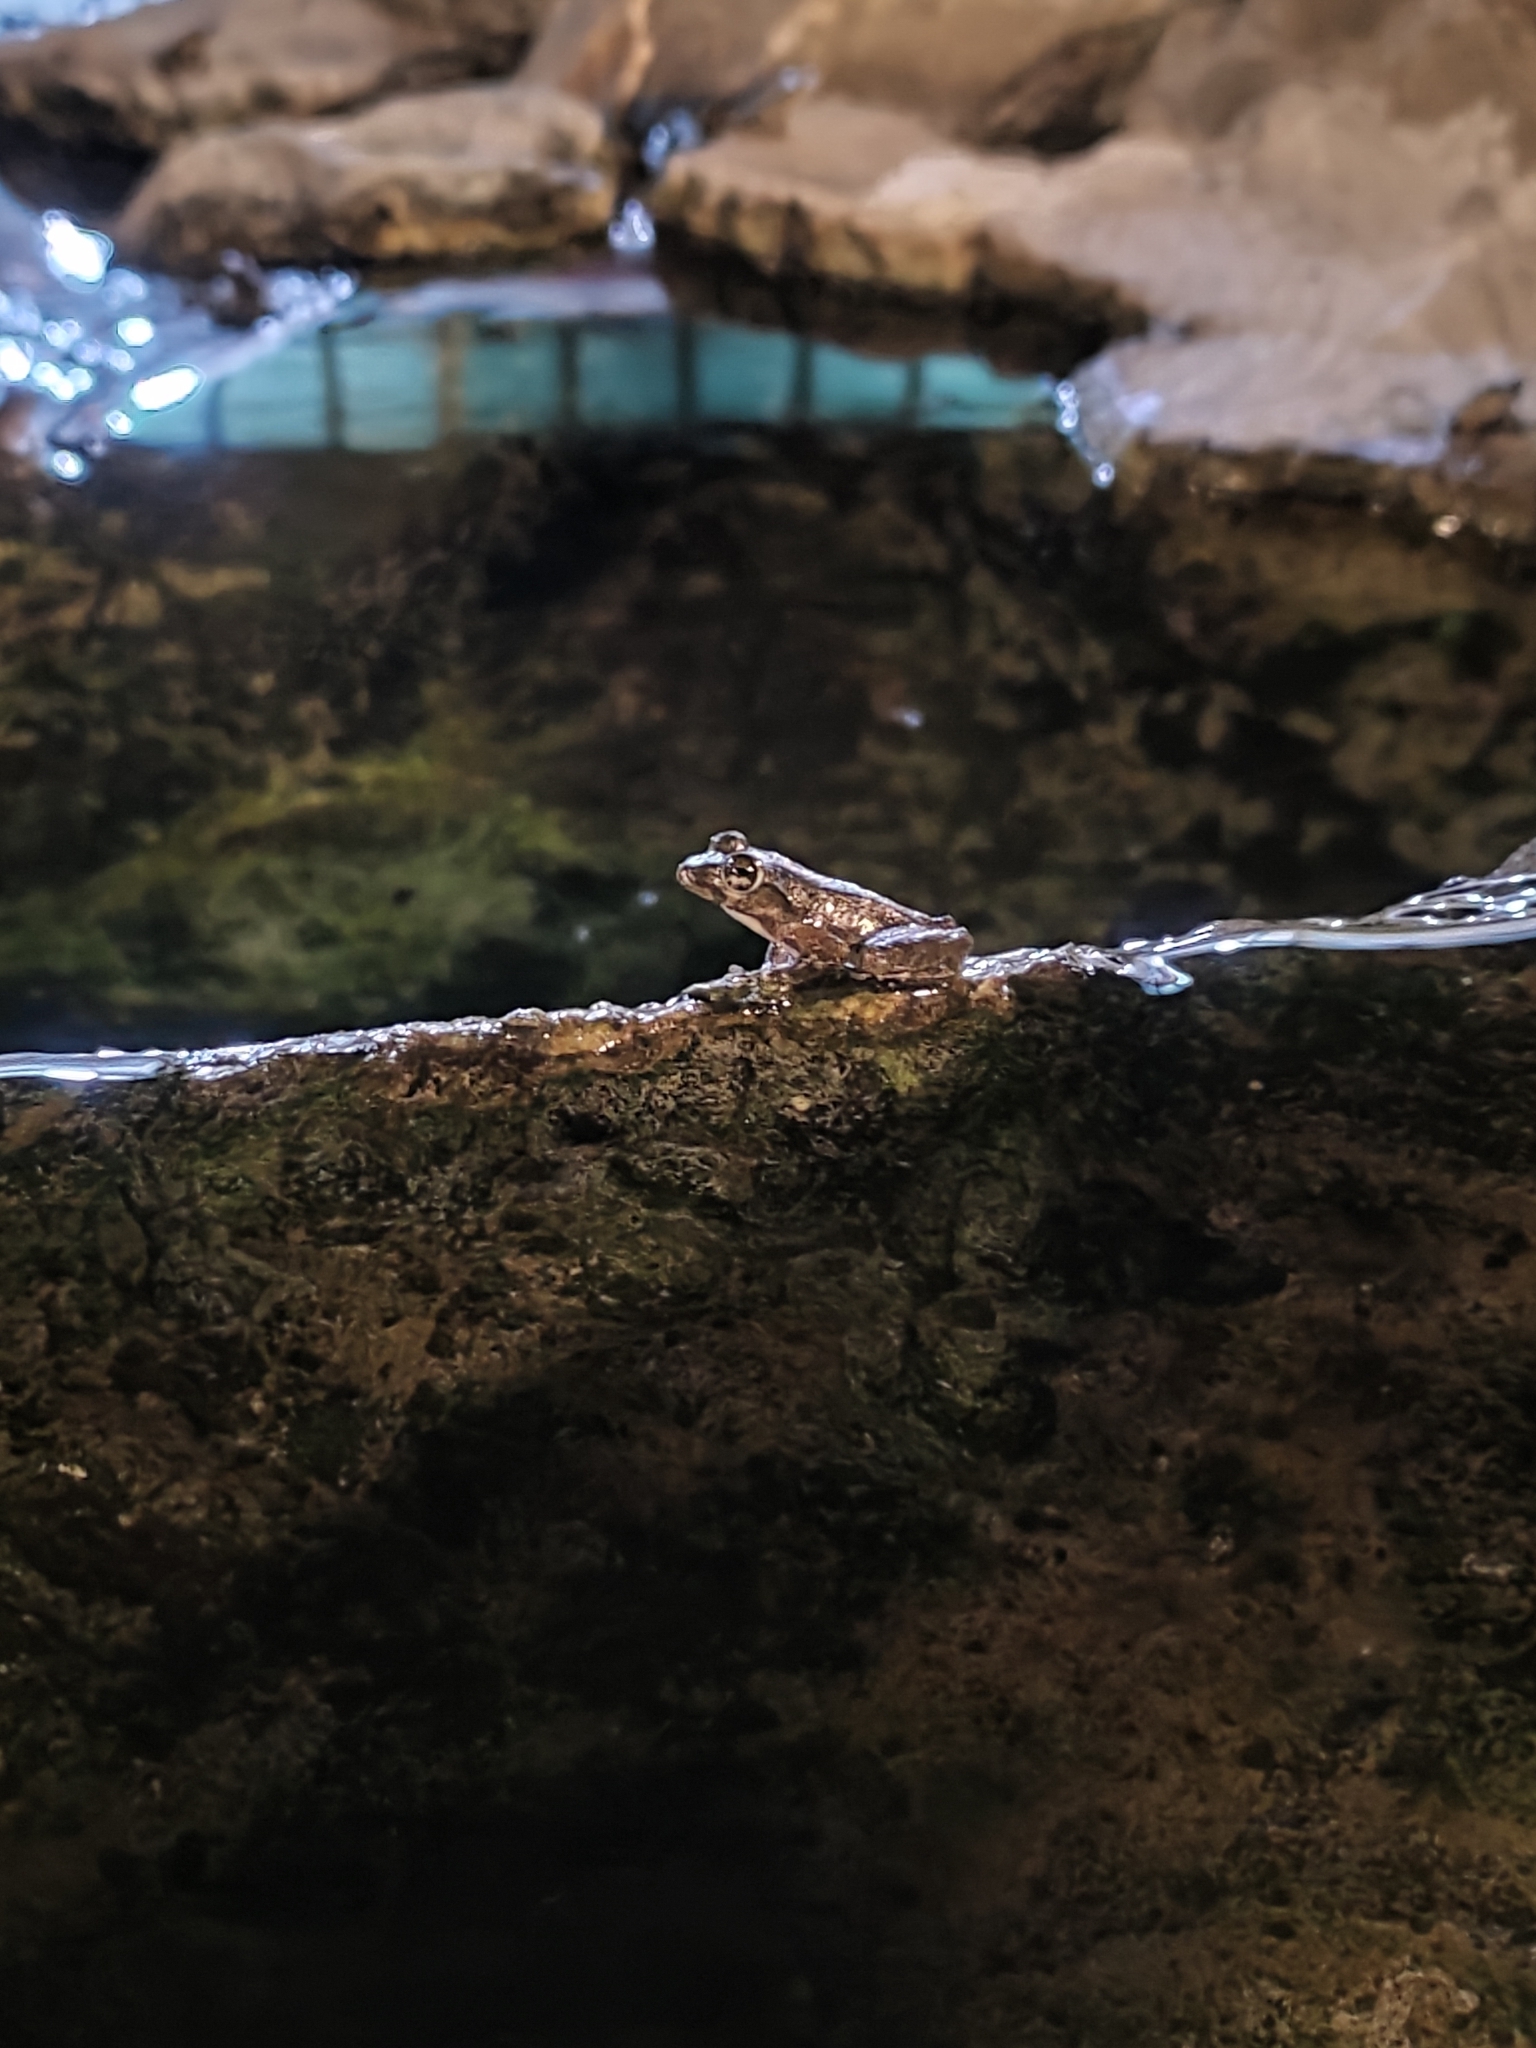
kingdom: Animalia
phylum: Chordata
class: Amphibia
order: Anura
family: Rhacophoridae
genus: Buergeria
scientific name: Buergeria otai
